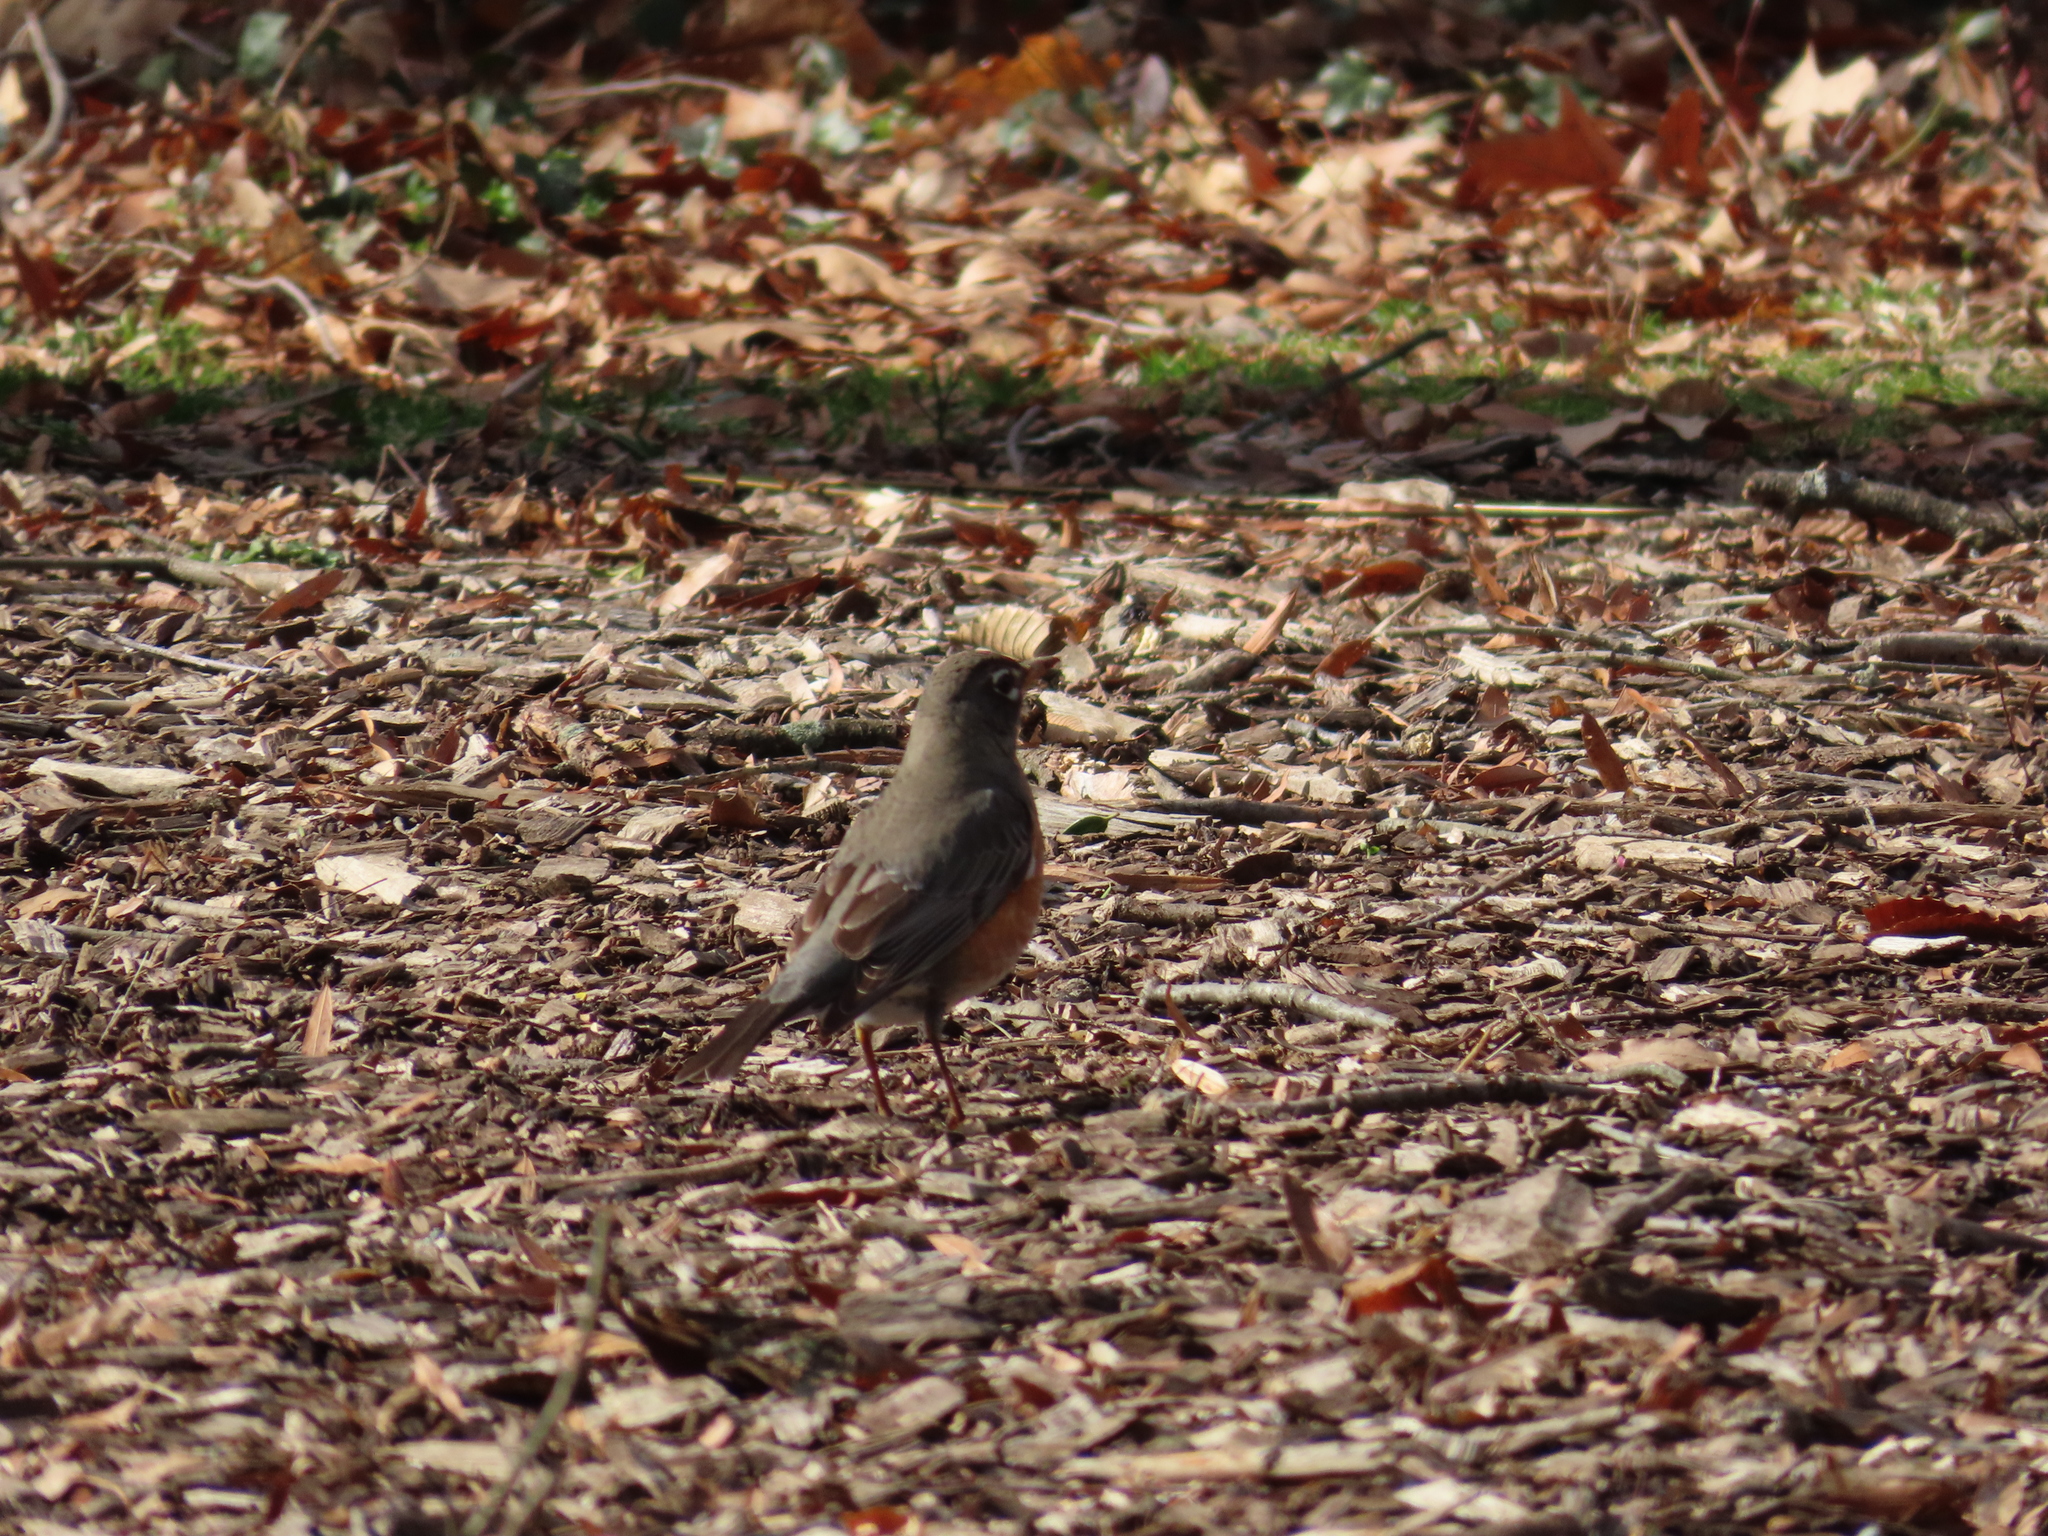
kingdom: Animalia
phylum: Chordata
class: Aves
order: Passeriformes
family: Turdidae
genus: Turdus
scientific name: Turdus migratorius
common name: American robin
